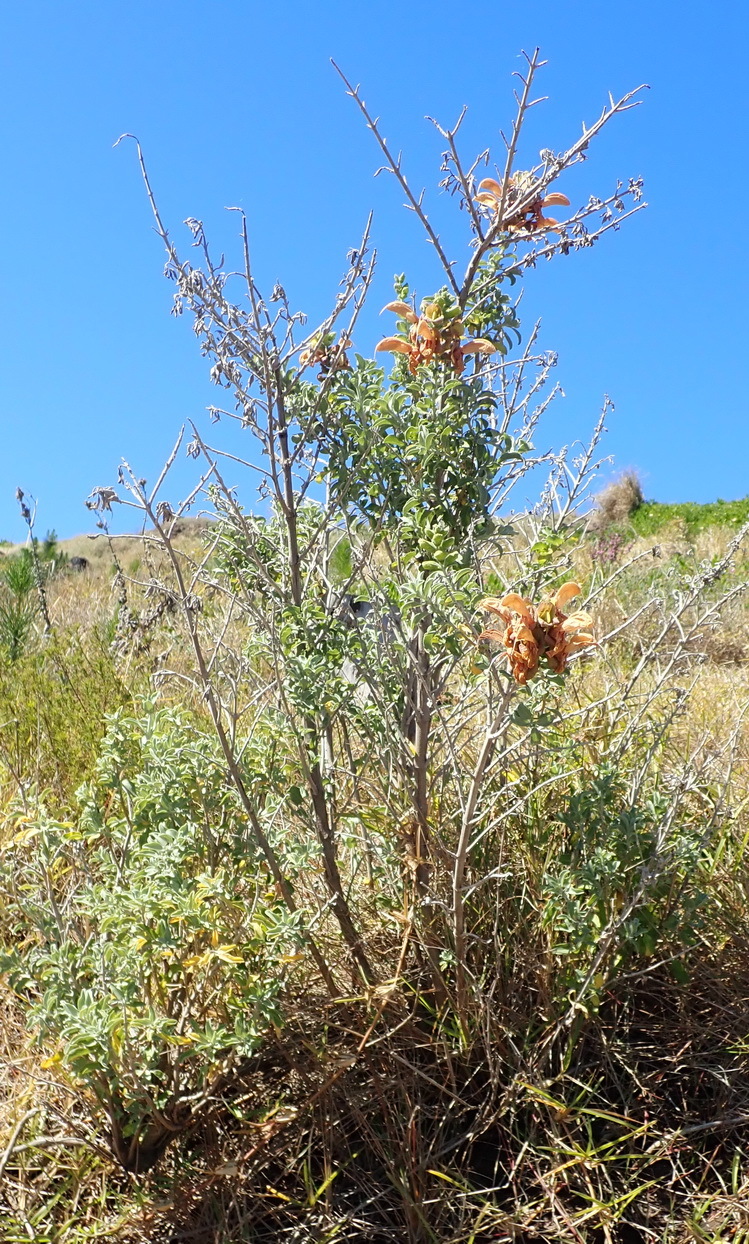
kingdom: Plantae
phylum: Tracheophyta
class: Magnoliopsida
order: Lamiales
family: Lamiaceae
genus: Salvia
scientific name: Salvia aurea
